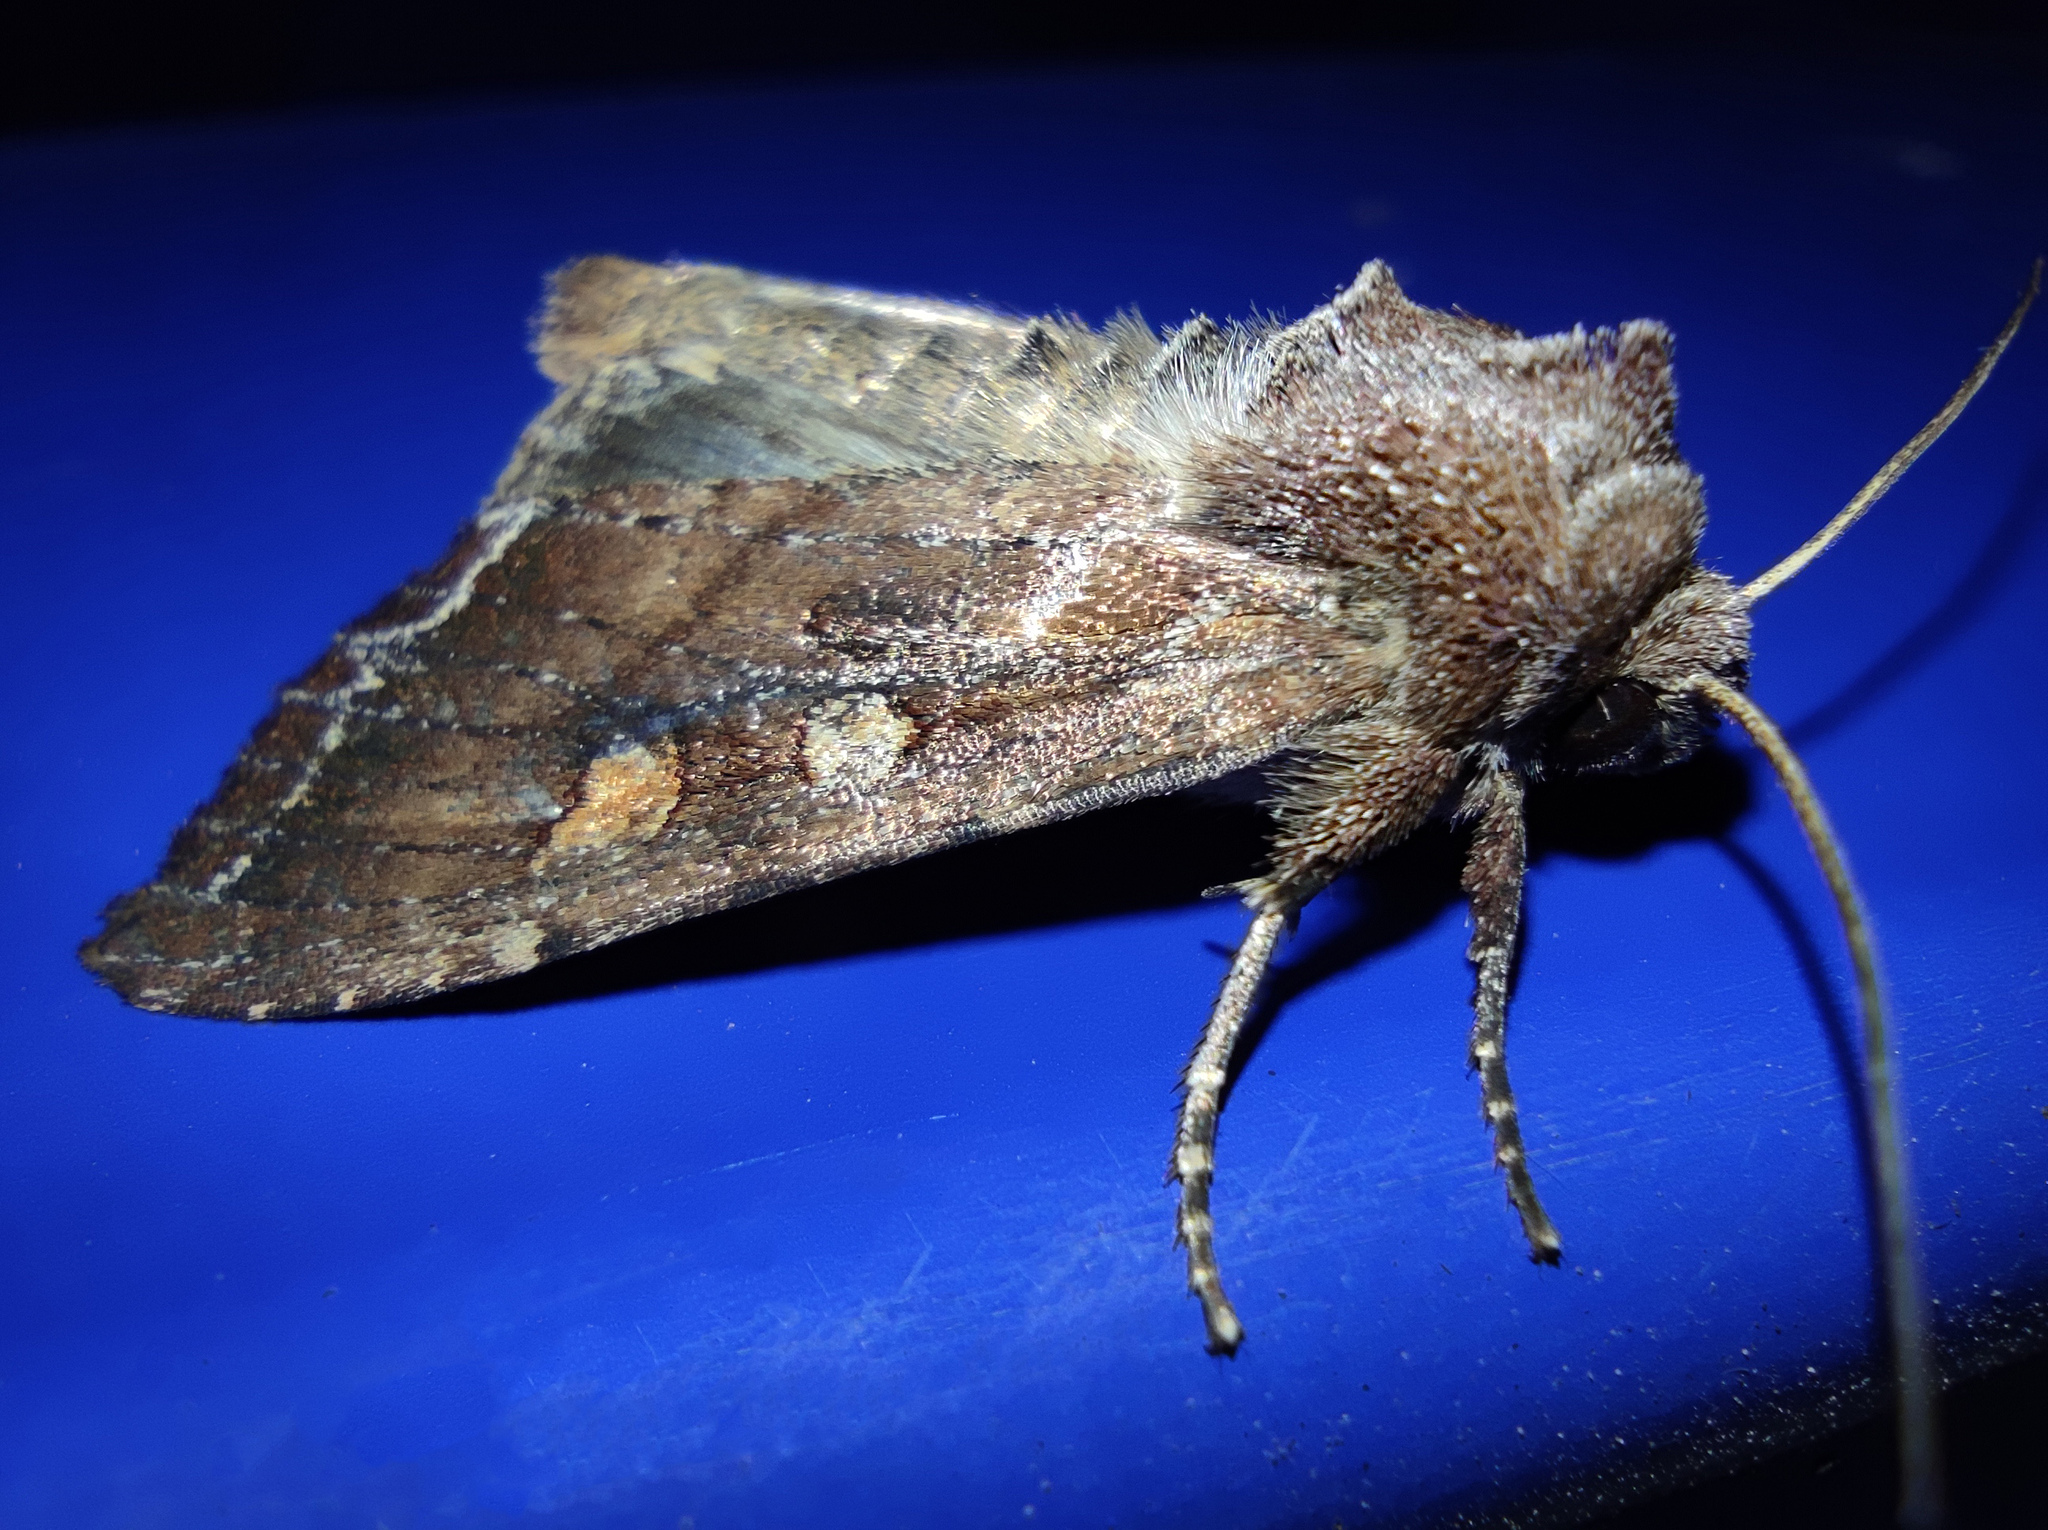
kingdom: Animalia
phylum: Arthropoda
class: Insecta
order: Lepidoptera
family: Noctuidae
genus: Lacanobia
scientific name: Lacanobia oleracea
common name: Bright-line brown-eye
